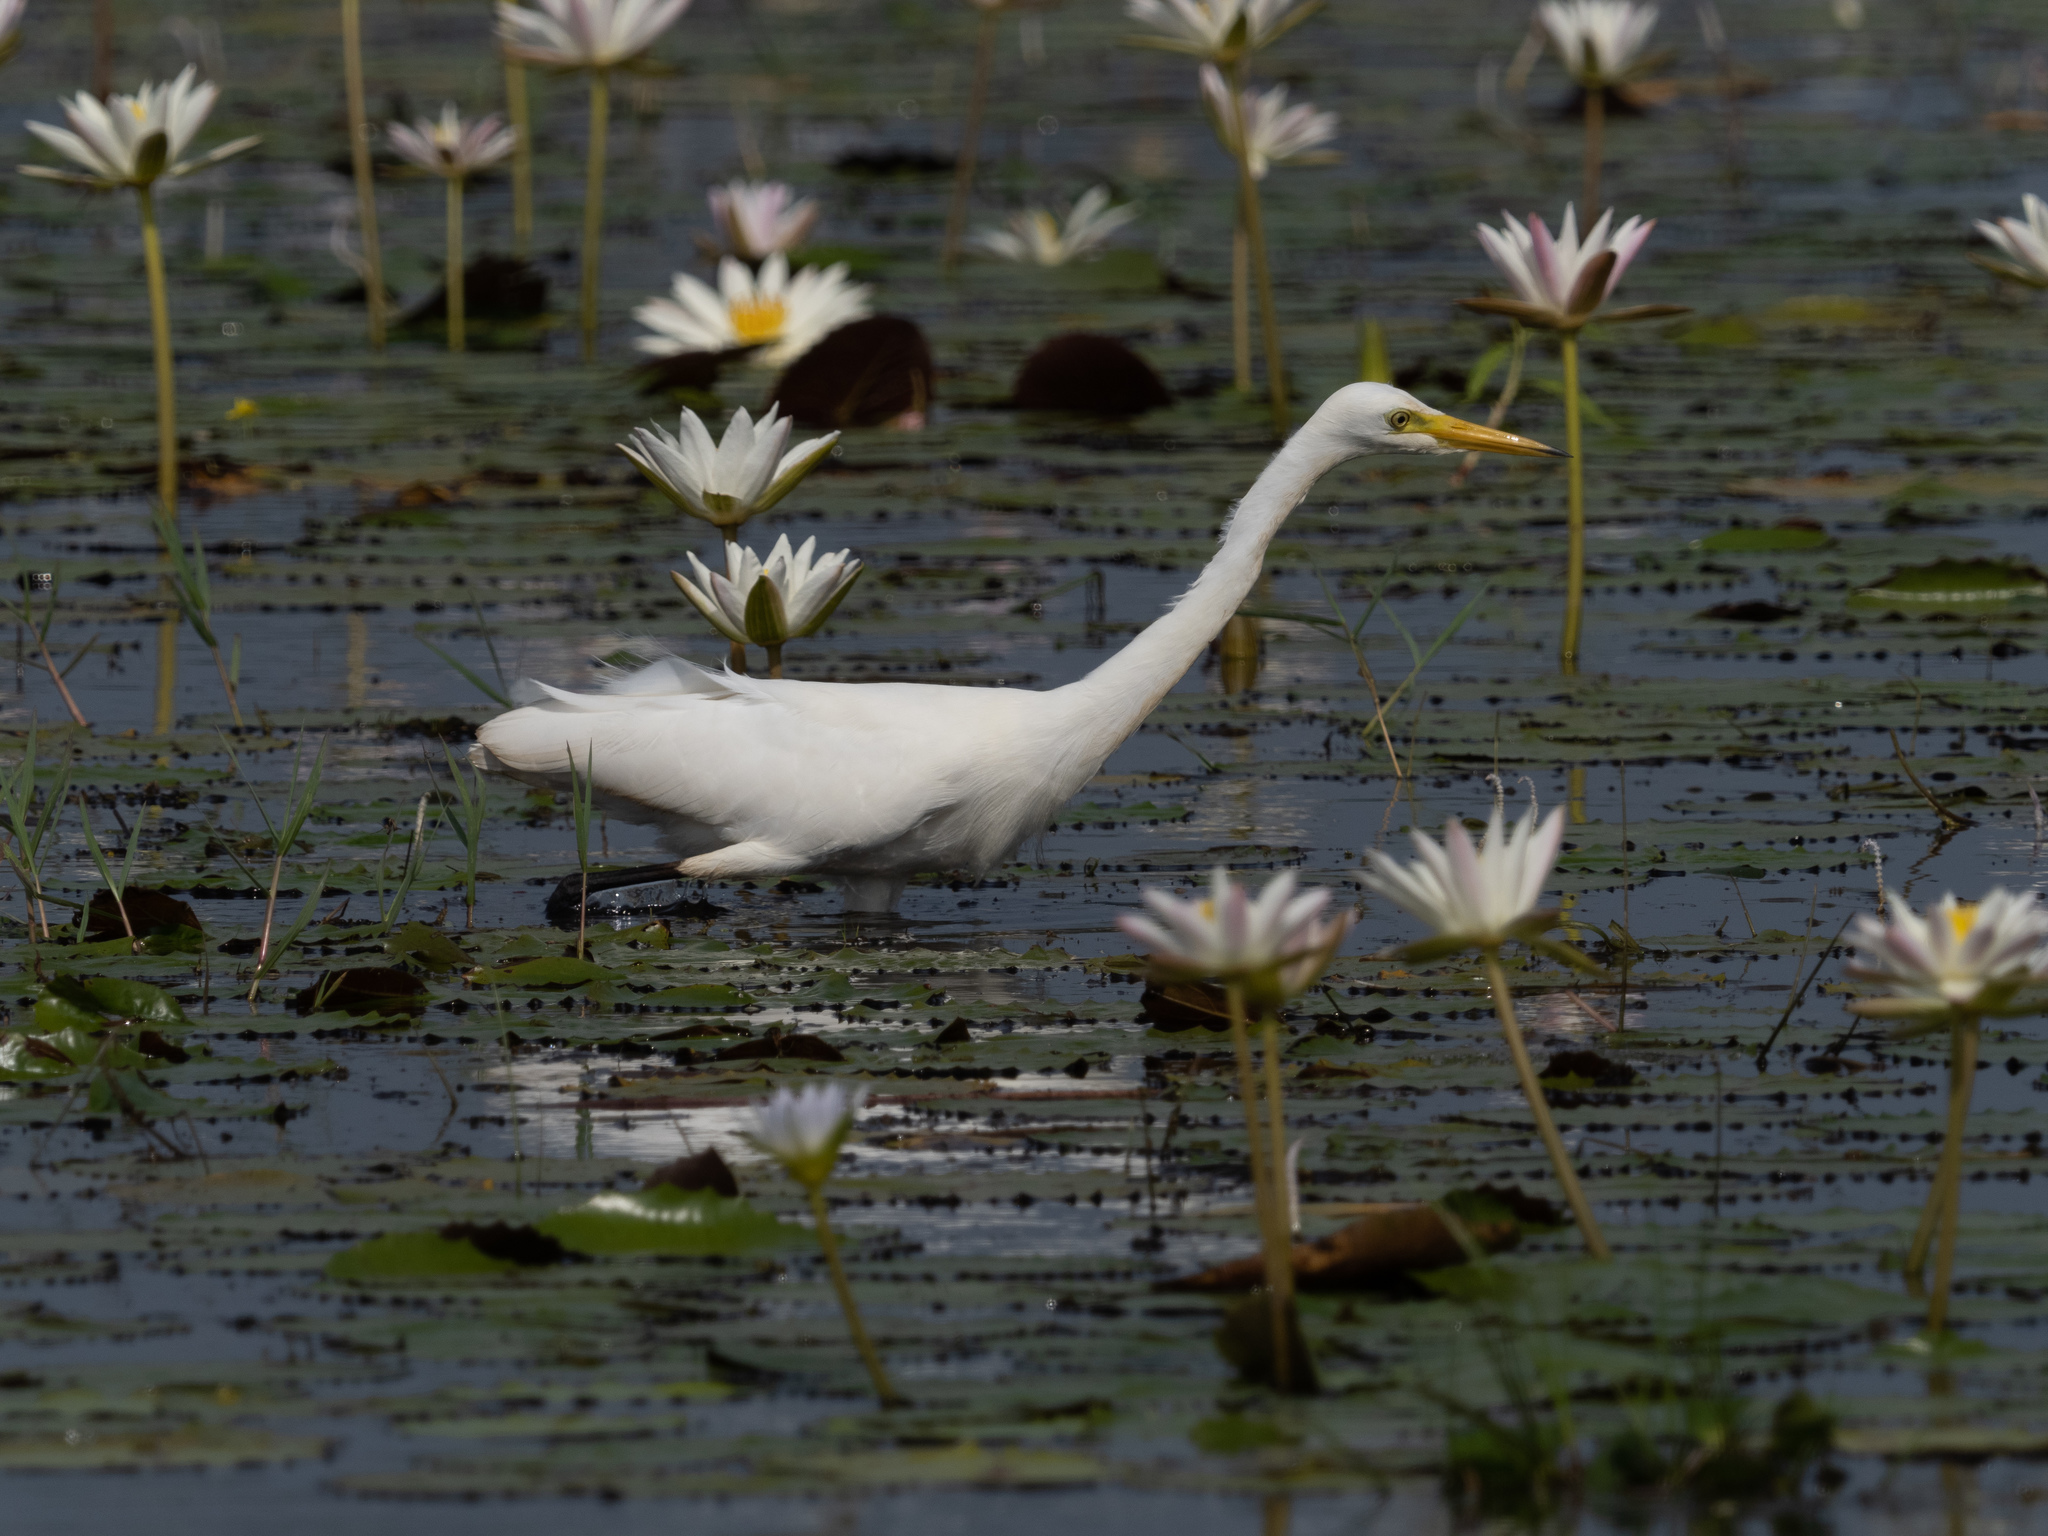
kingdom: Animalia
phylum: Chordata
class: Aves
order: Pelecaniformes
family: Ardeidae
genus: Egretta
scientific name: Egretta intermedia
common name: Intermediate egret
